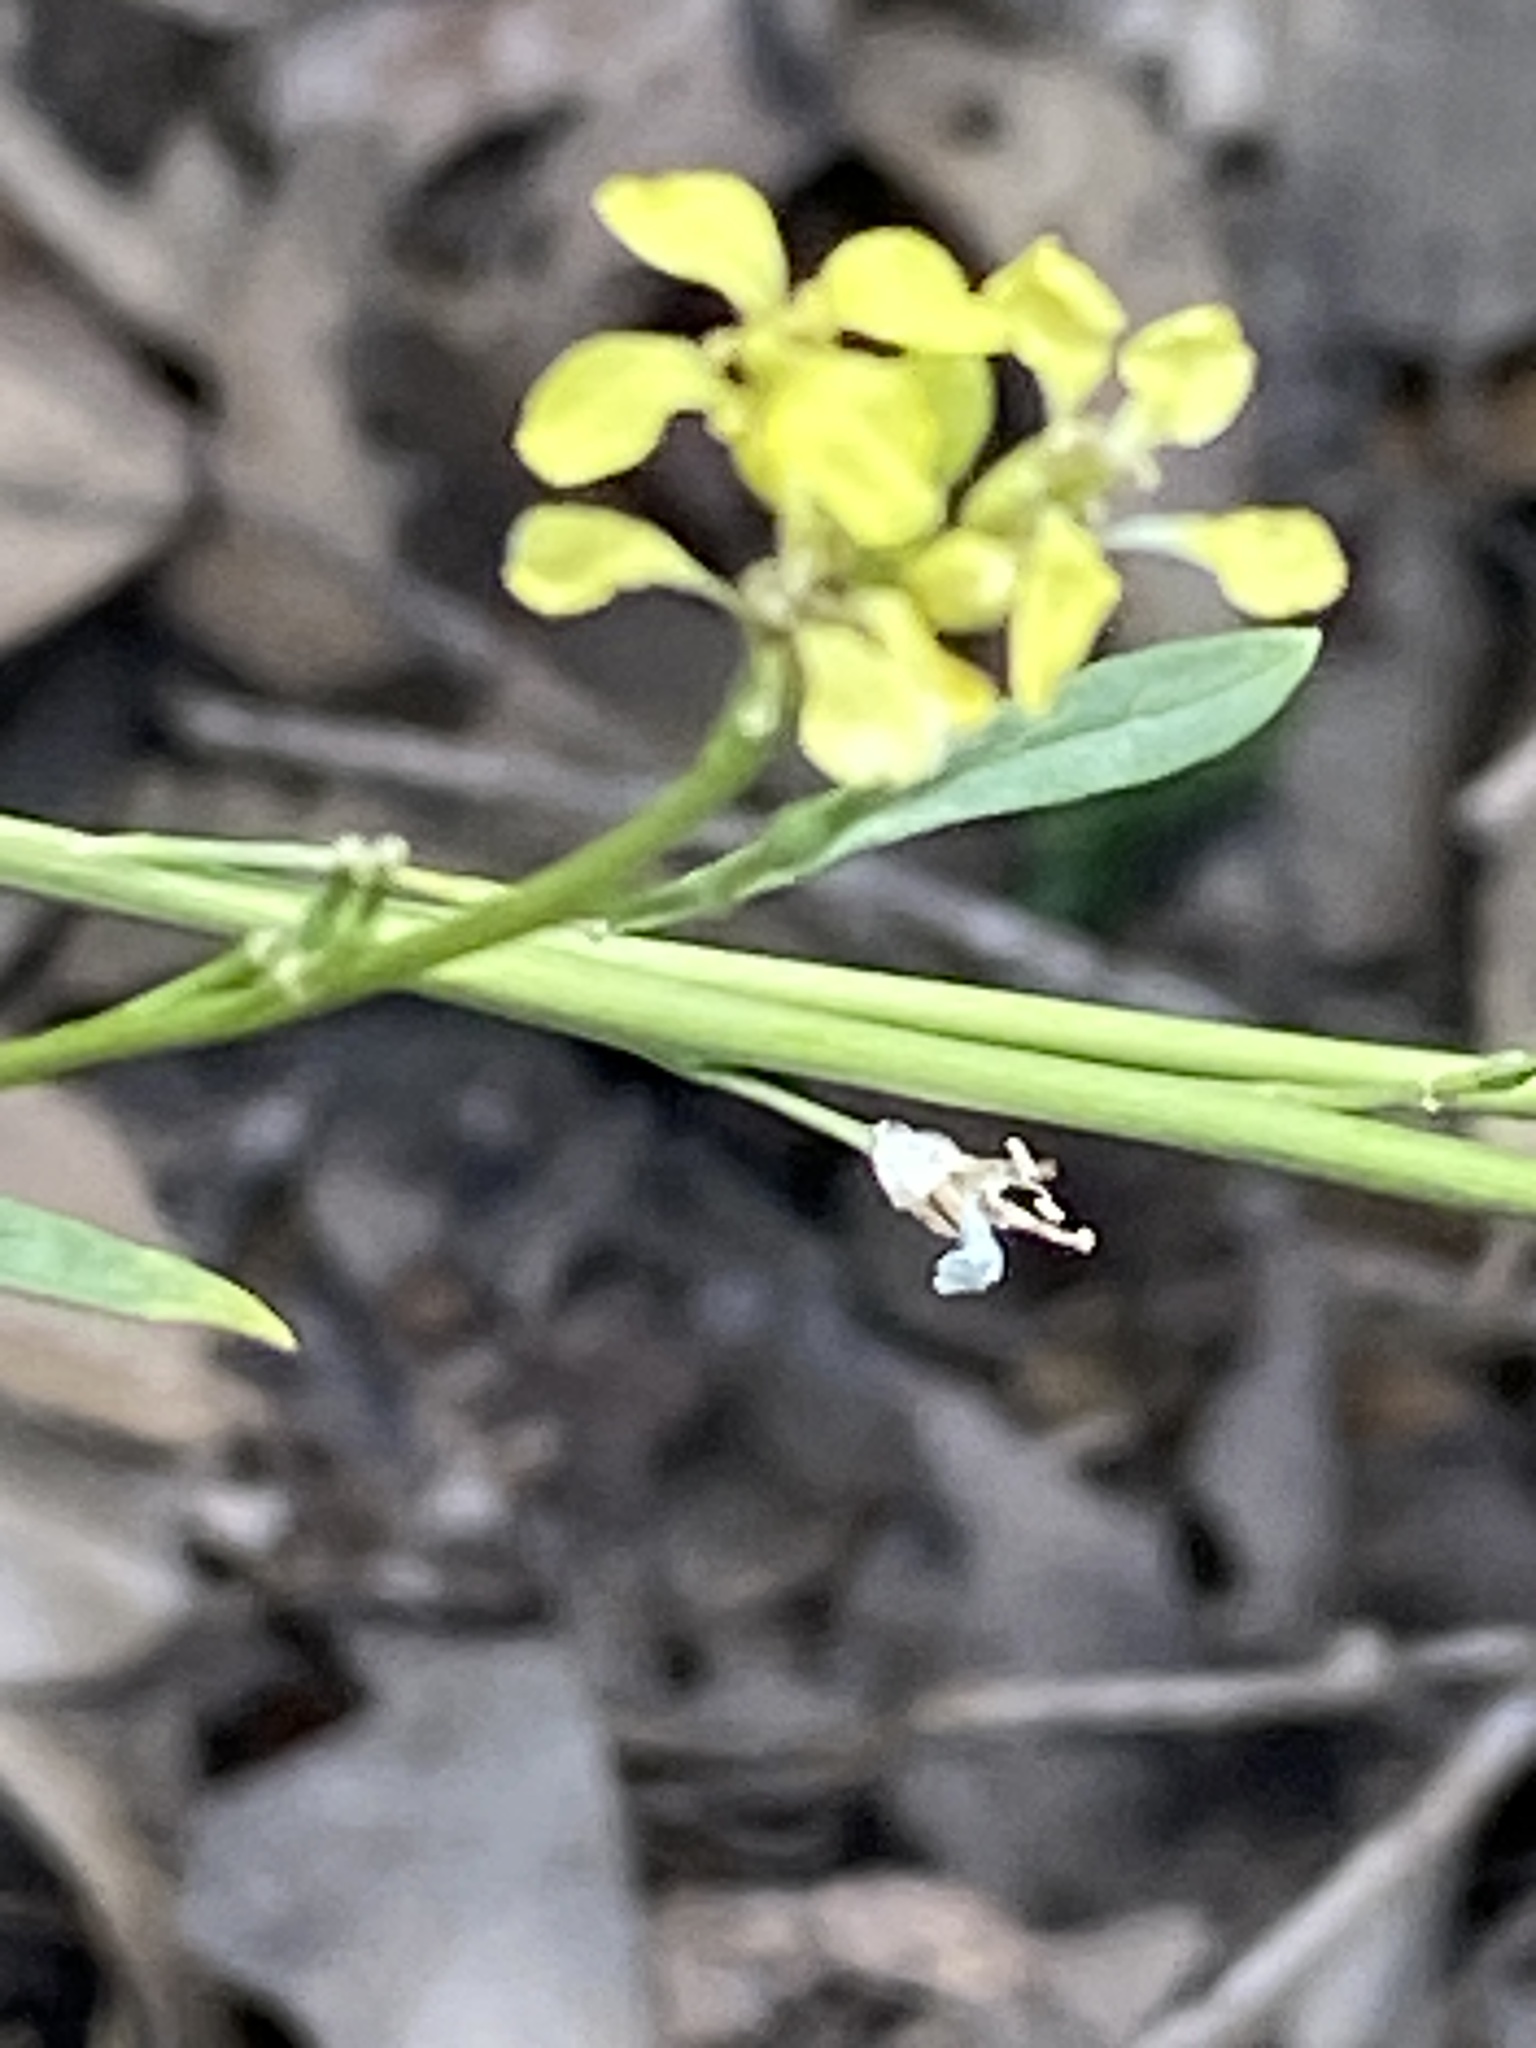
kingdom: Plantae
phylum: Tracheophyta
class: Magnoliopsida
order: Brassicales
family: Brassicaceae
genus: Rapistrum
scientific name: Rapistrum rugosum
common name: Annual bastardcabbage
